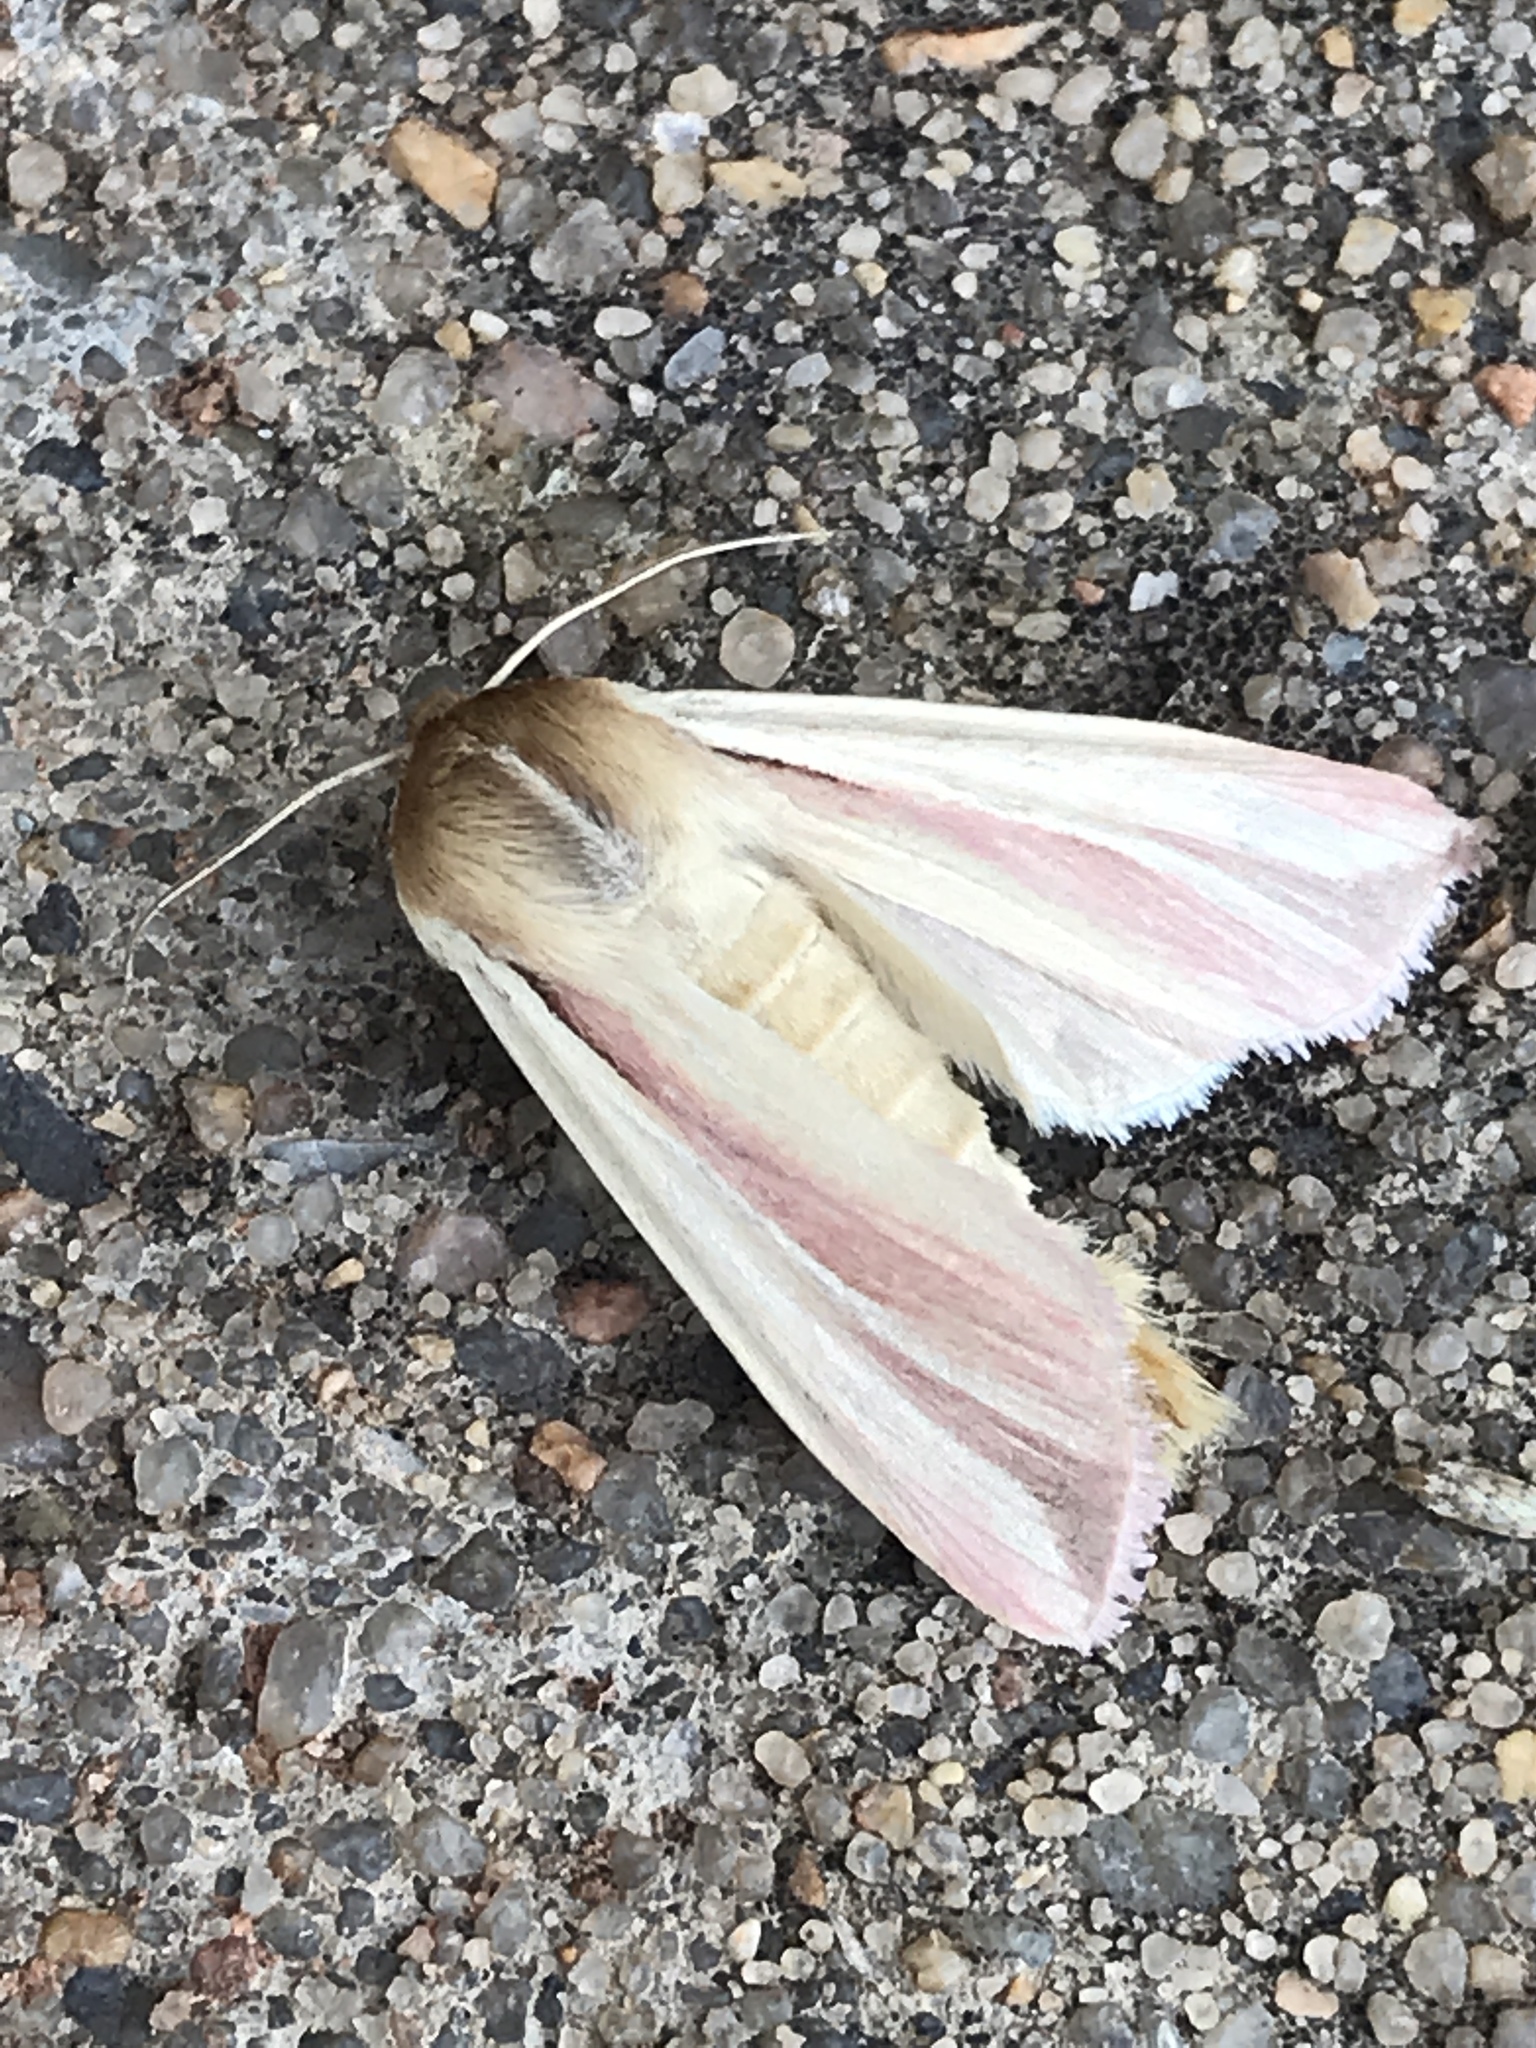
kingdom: Animalia
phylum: Arthropoda
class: Insecta
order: Lepidoptera
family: Noctuidae
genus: Dargida
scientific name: Dargida rubripennis
